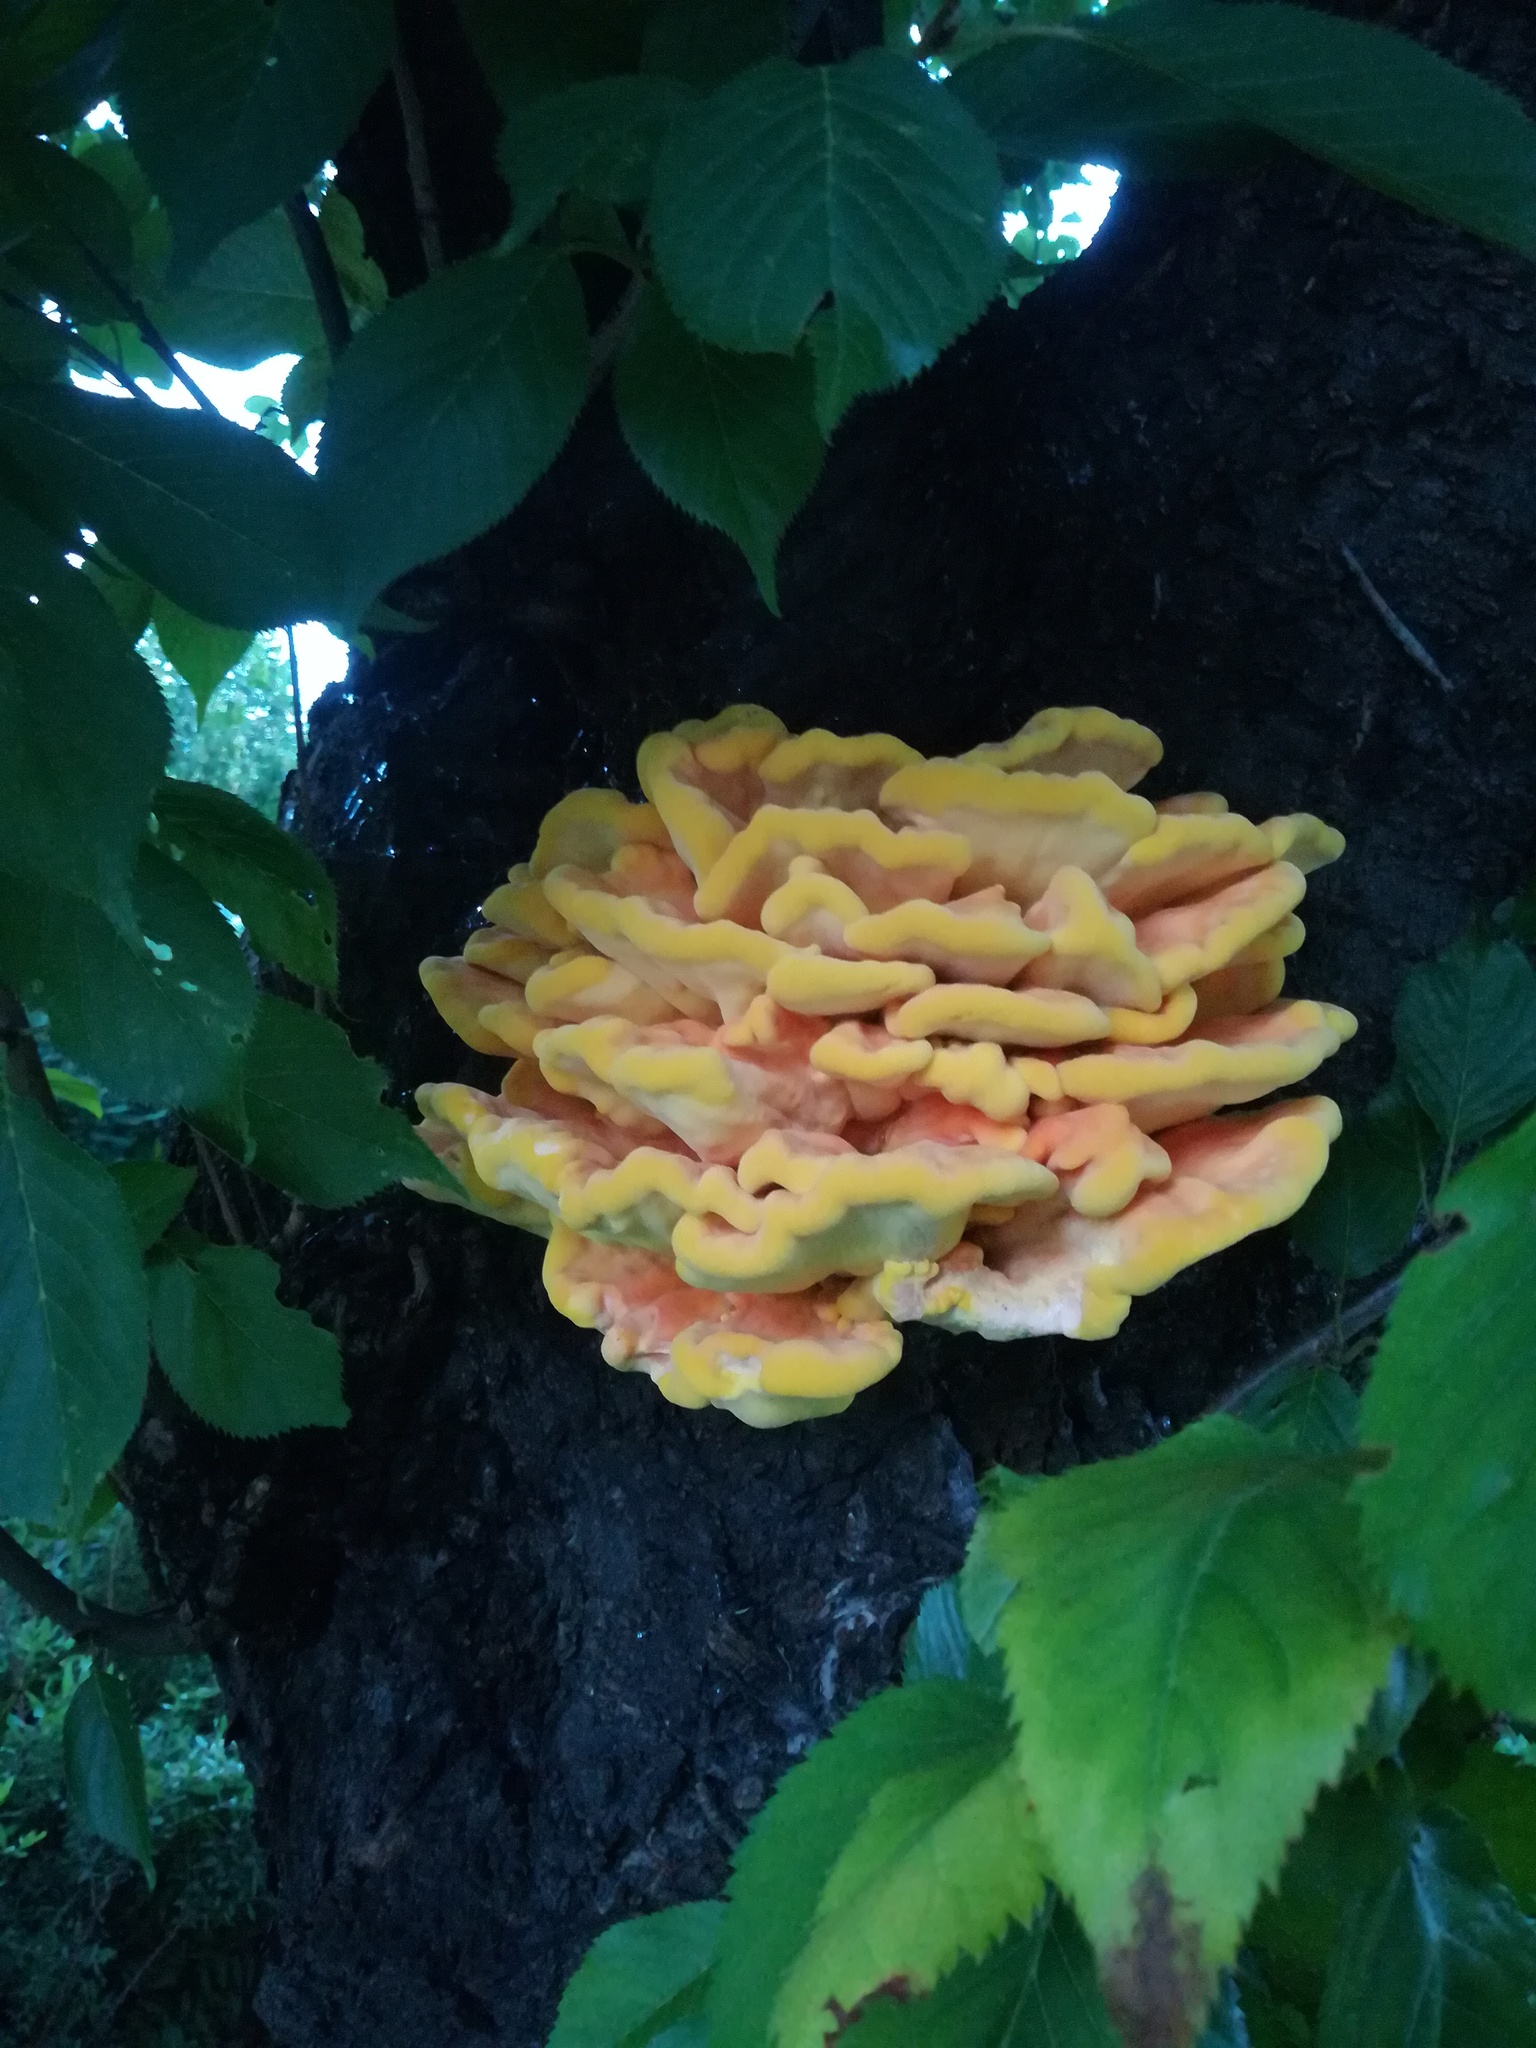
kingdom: Fungi
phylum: Basidiomycota
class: Agaricomycetes
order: Polyporales
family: Laetiporaceae
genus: Laetiporus
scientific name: Laetiporus sulphureus
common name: Chicken of the woods
